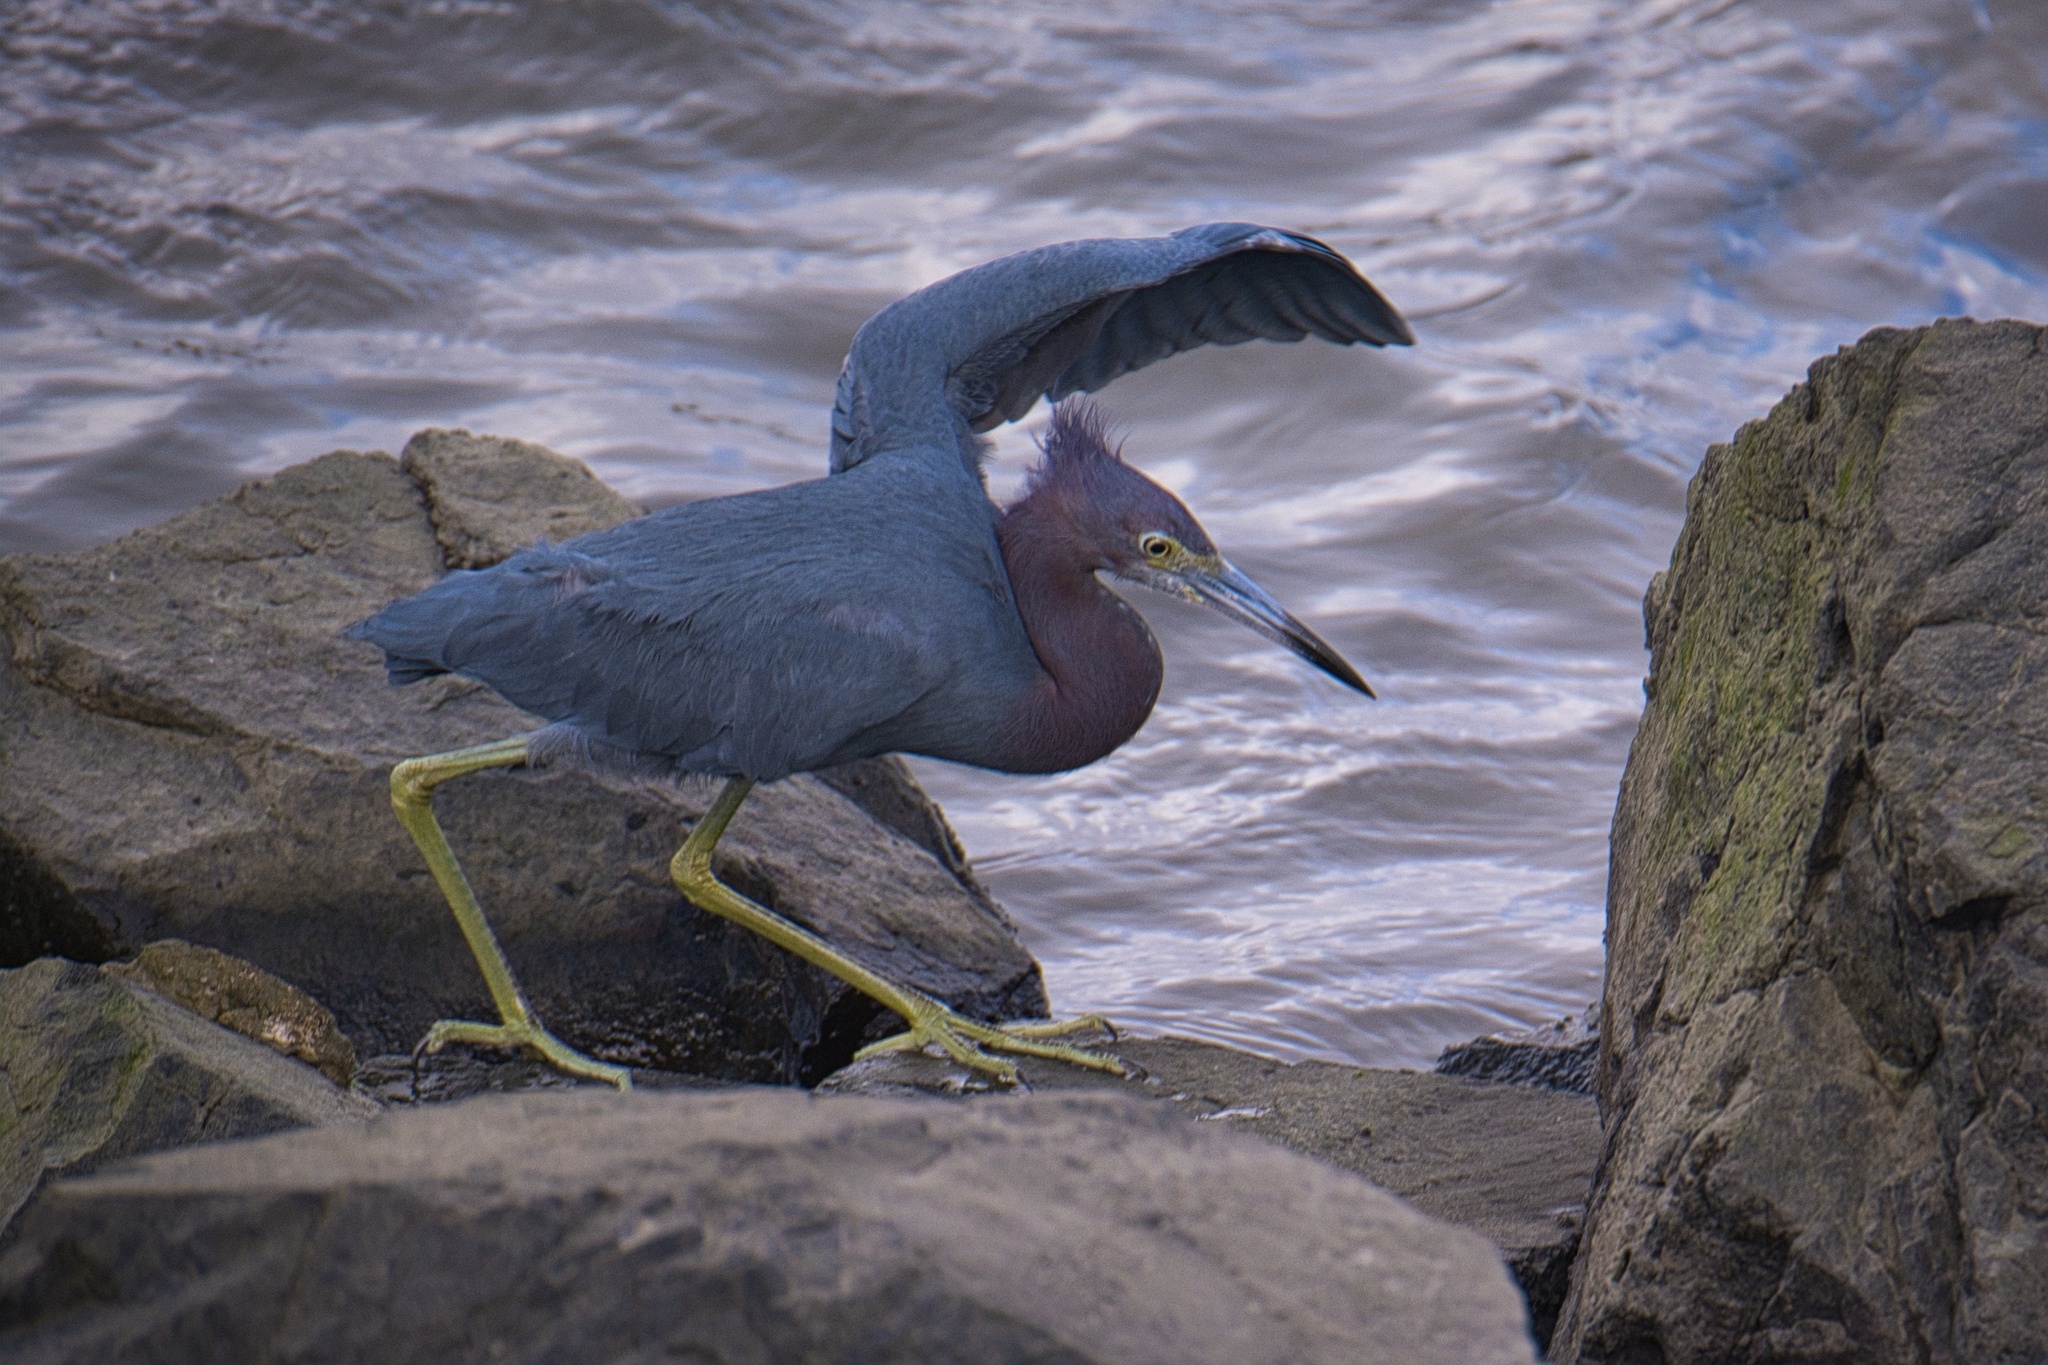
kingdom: Animalia
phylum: Chordata
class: Aves
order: Pelecaniformes
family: Ardeidae
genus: Egretta
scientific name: Egretta caerulea
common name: Little blue heron
